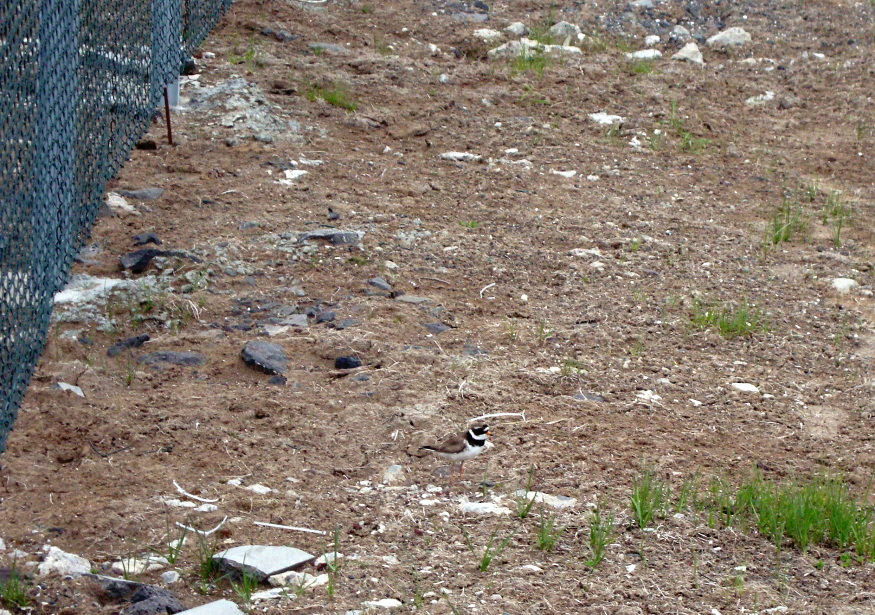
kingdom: Animalia
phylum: Chordata
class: Aves
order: Charadriiformes
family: Charadriidae
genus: Charadrius
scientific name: Charadrius hiaticula
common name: Common ringed plover
